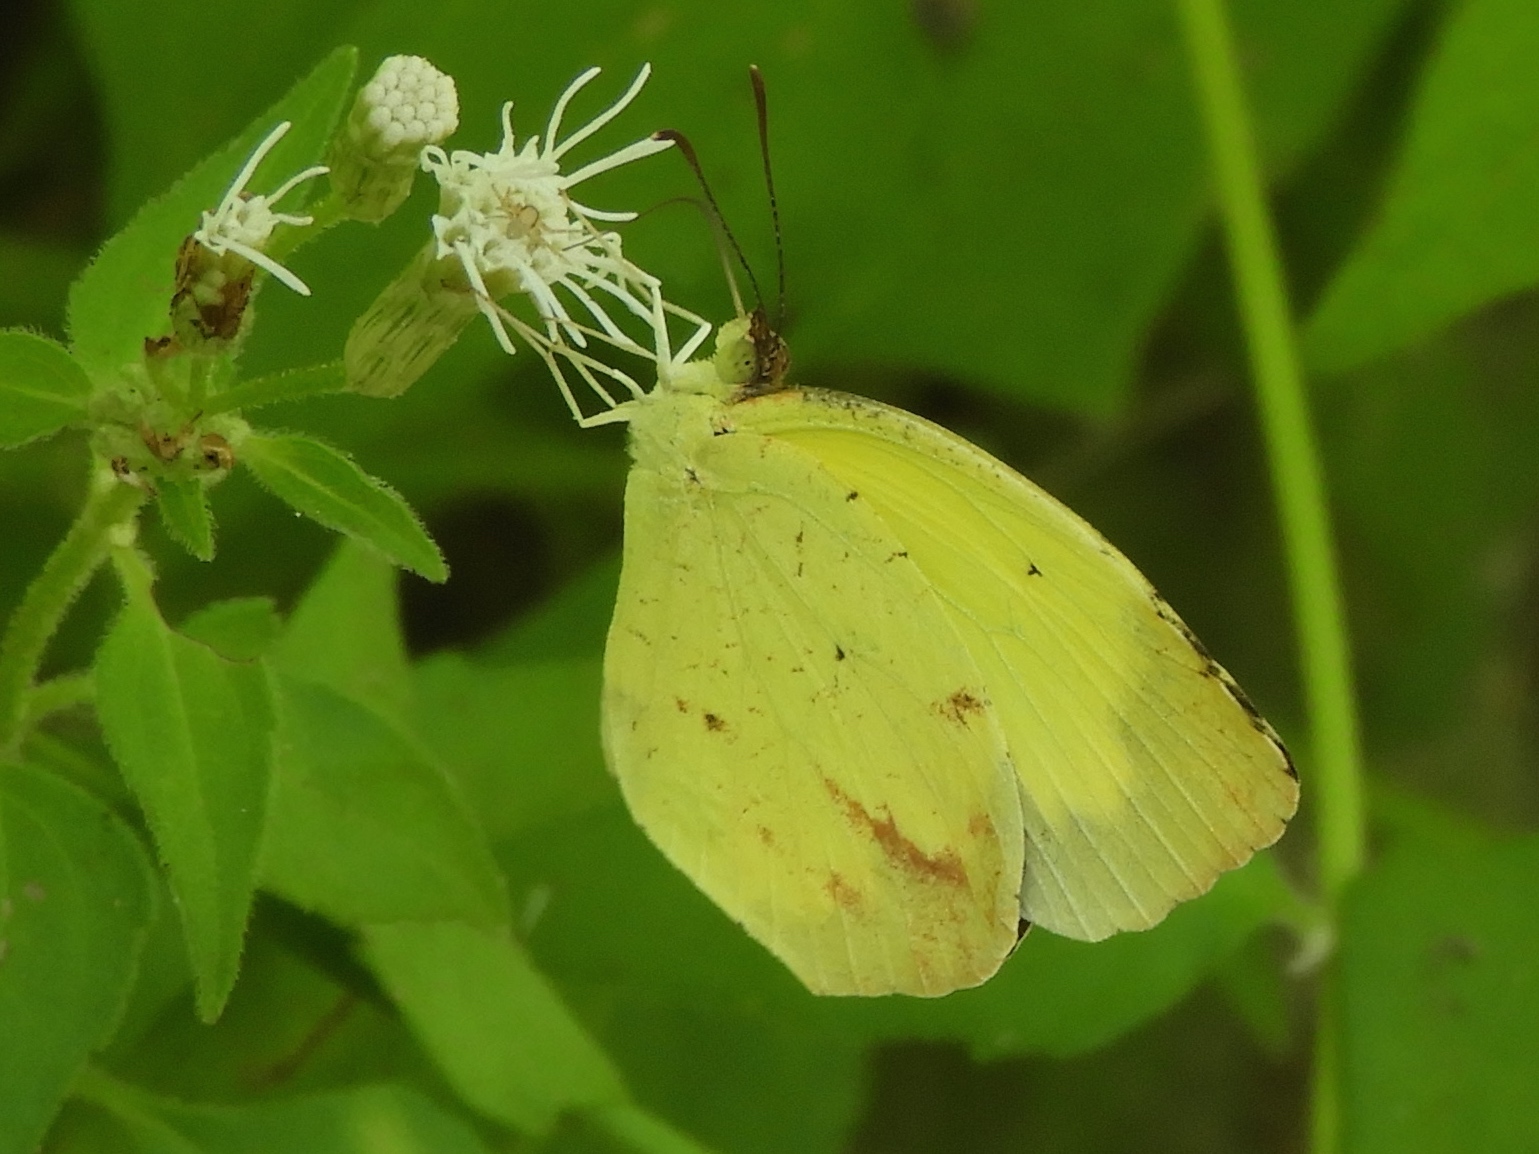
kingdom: Animalia
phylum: Arthropoda
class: Insecta
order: Lepidoptera
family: Pieridae
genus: Abaeis
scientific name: Abaeis boisduvaliana
